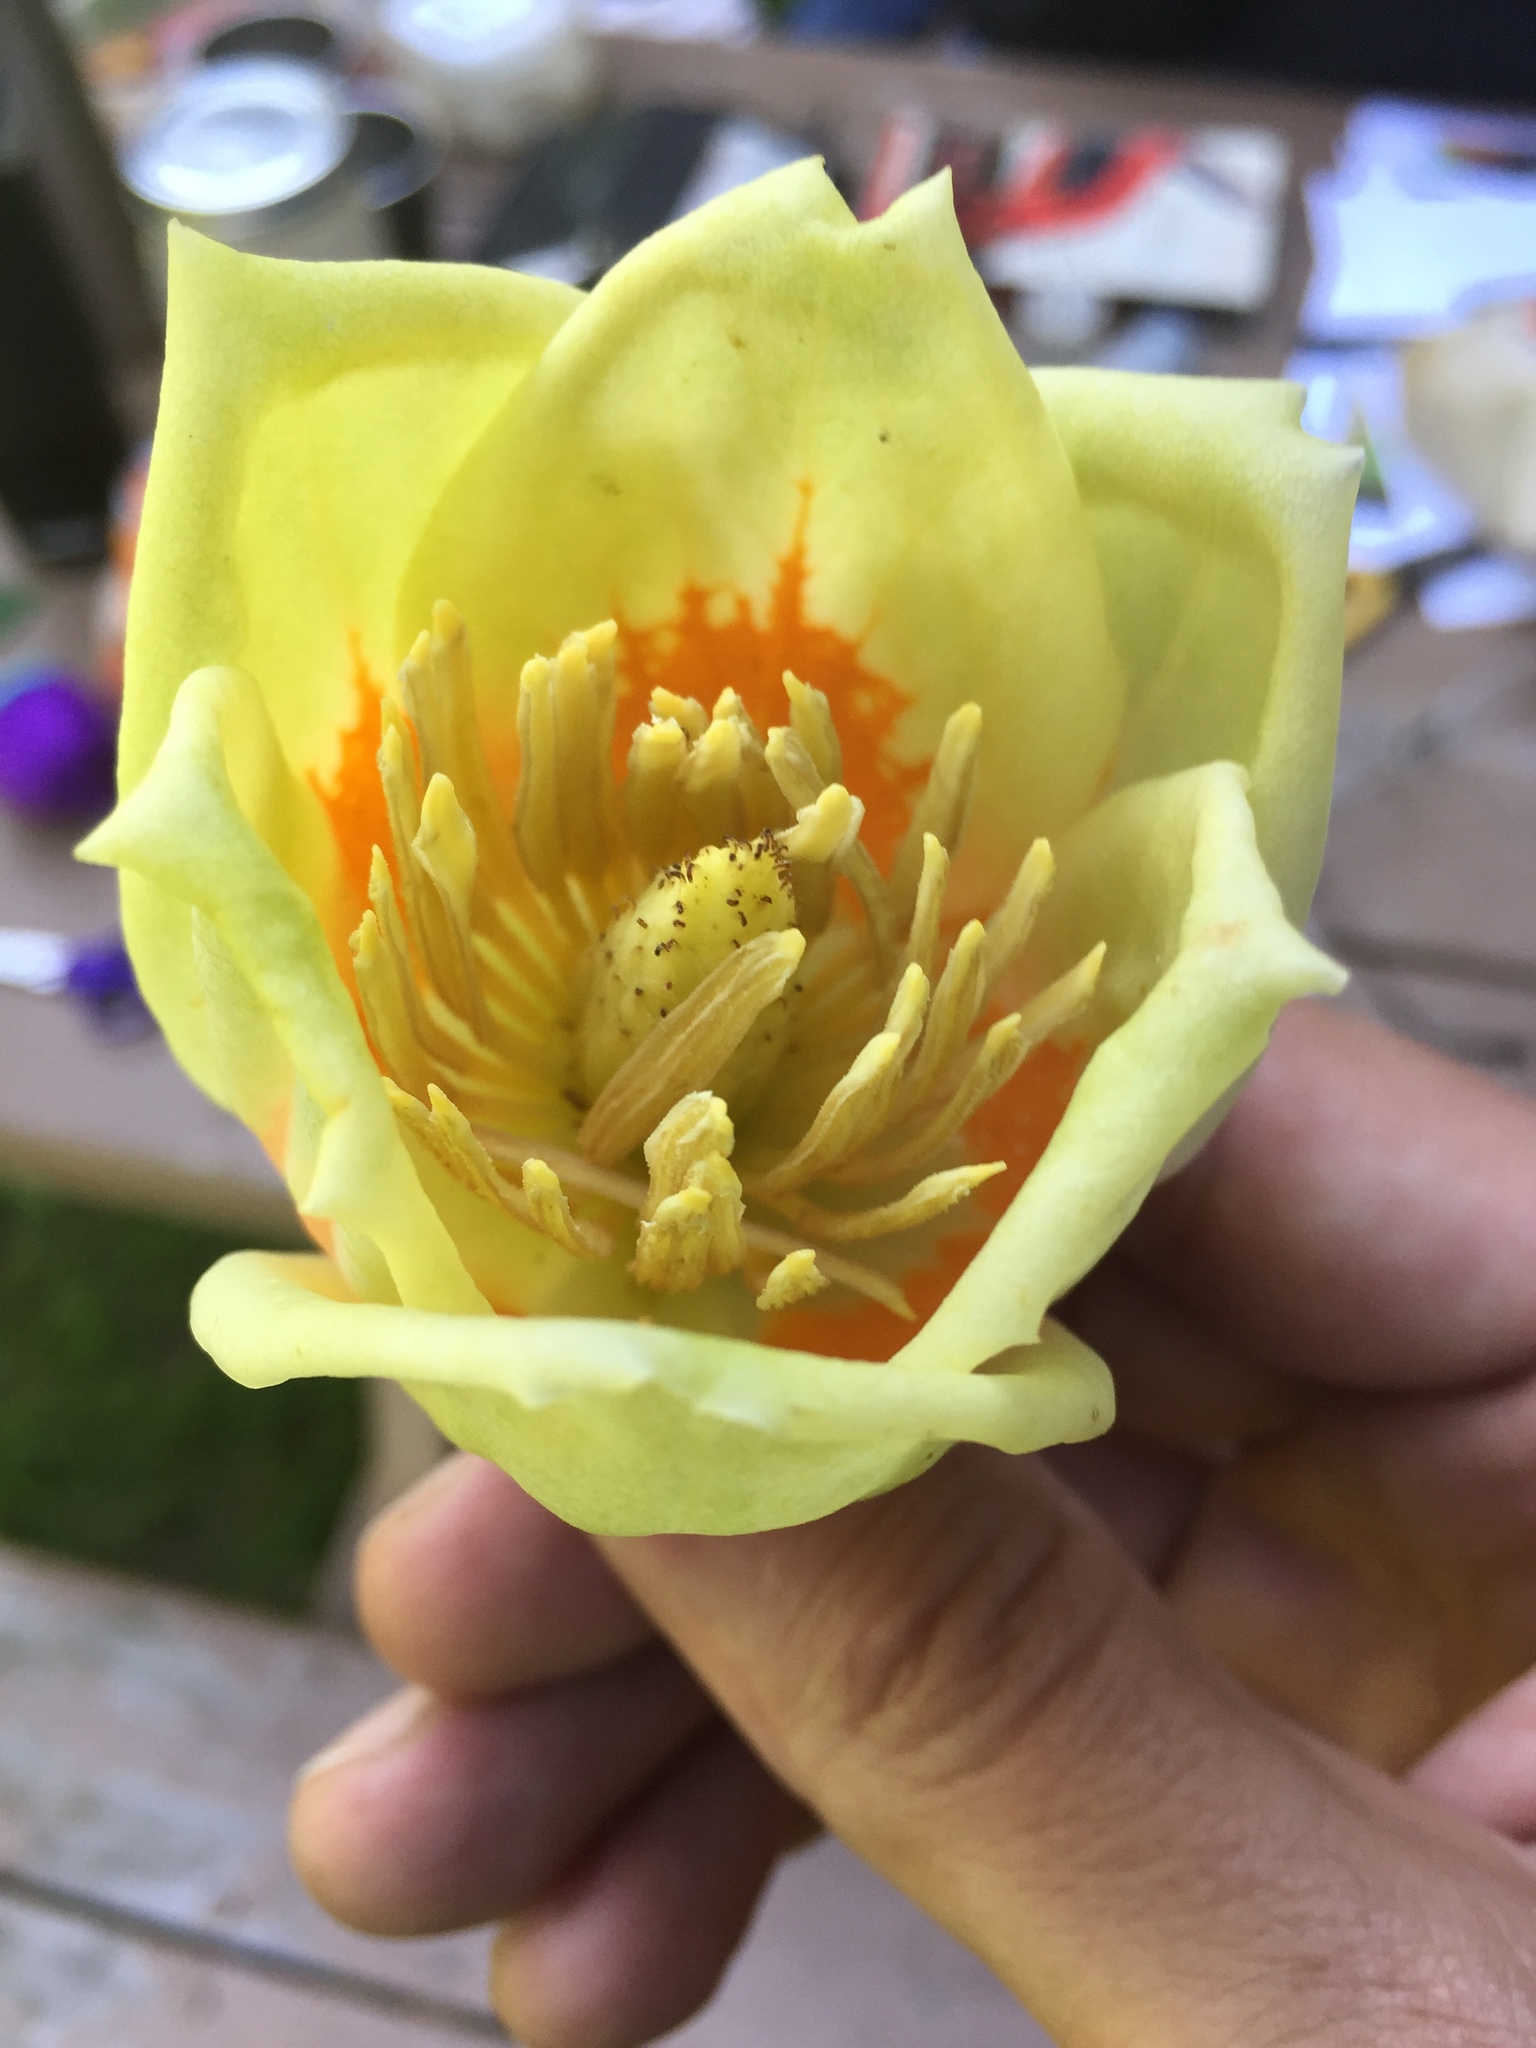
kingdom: Plantae
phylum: Tracheophyta
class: Magnoliopsida
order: Magnoliales
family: Magnoliaceae
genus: Liriodendron
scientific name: Liriodendron tulipifera
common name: Tulip tree
